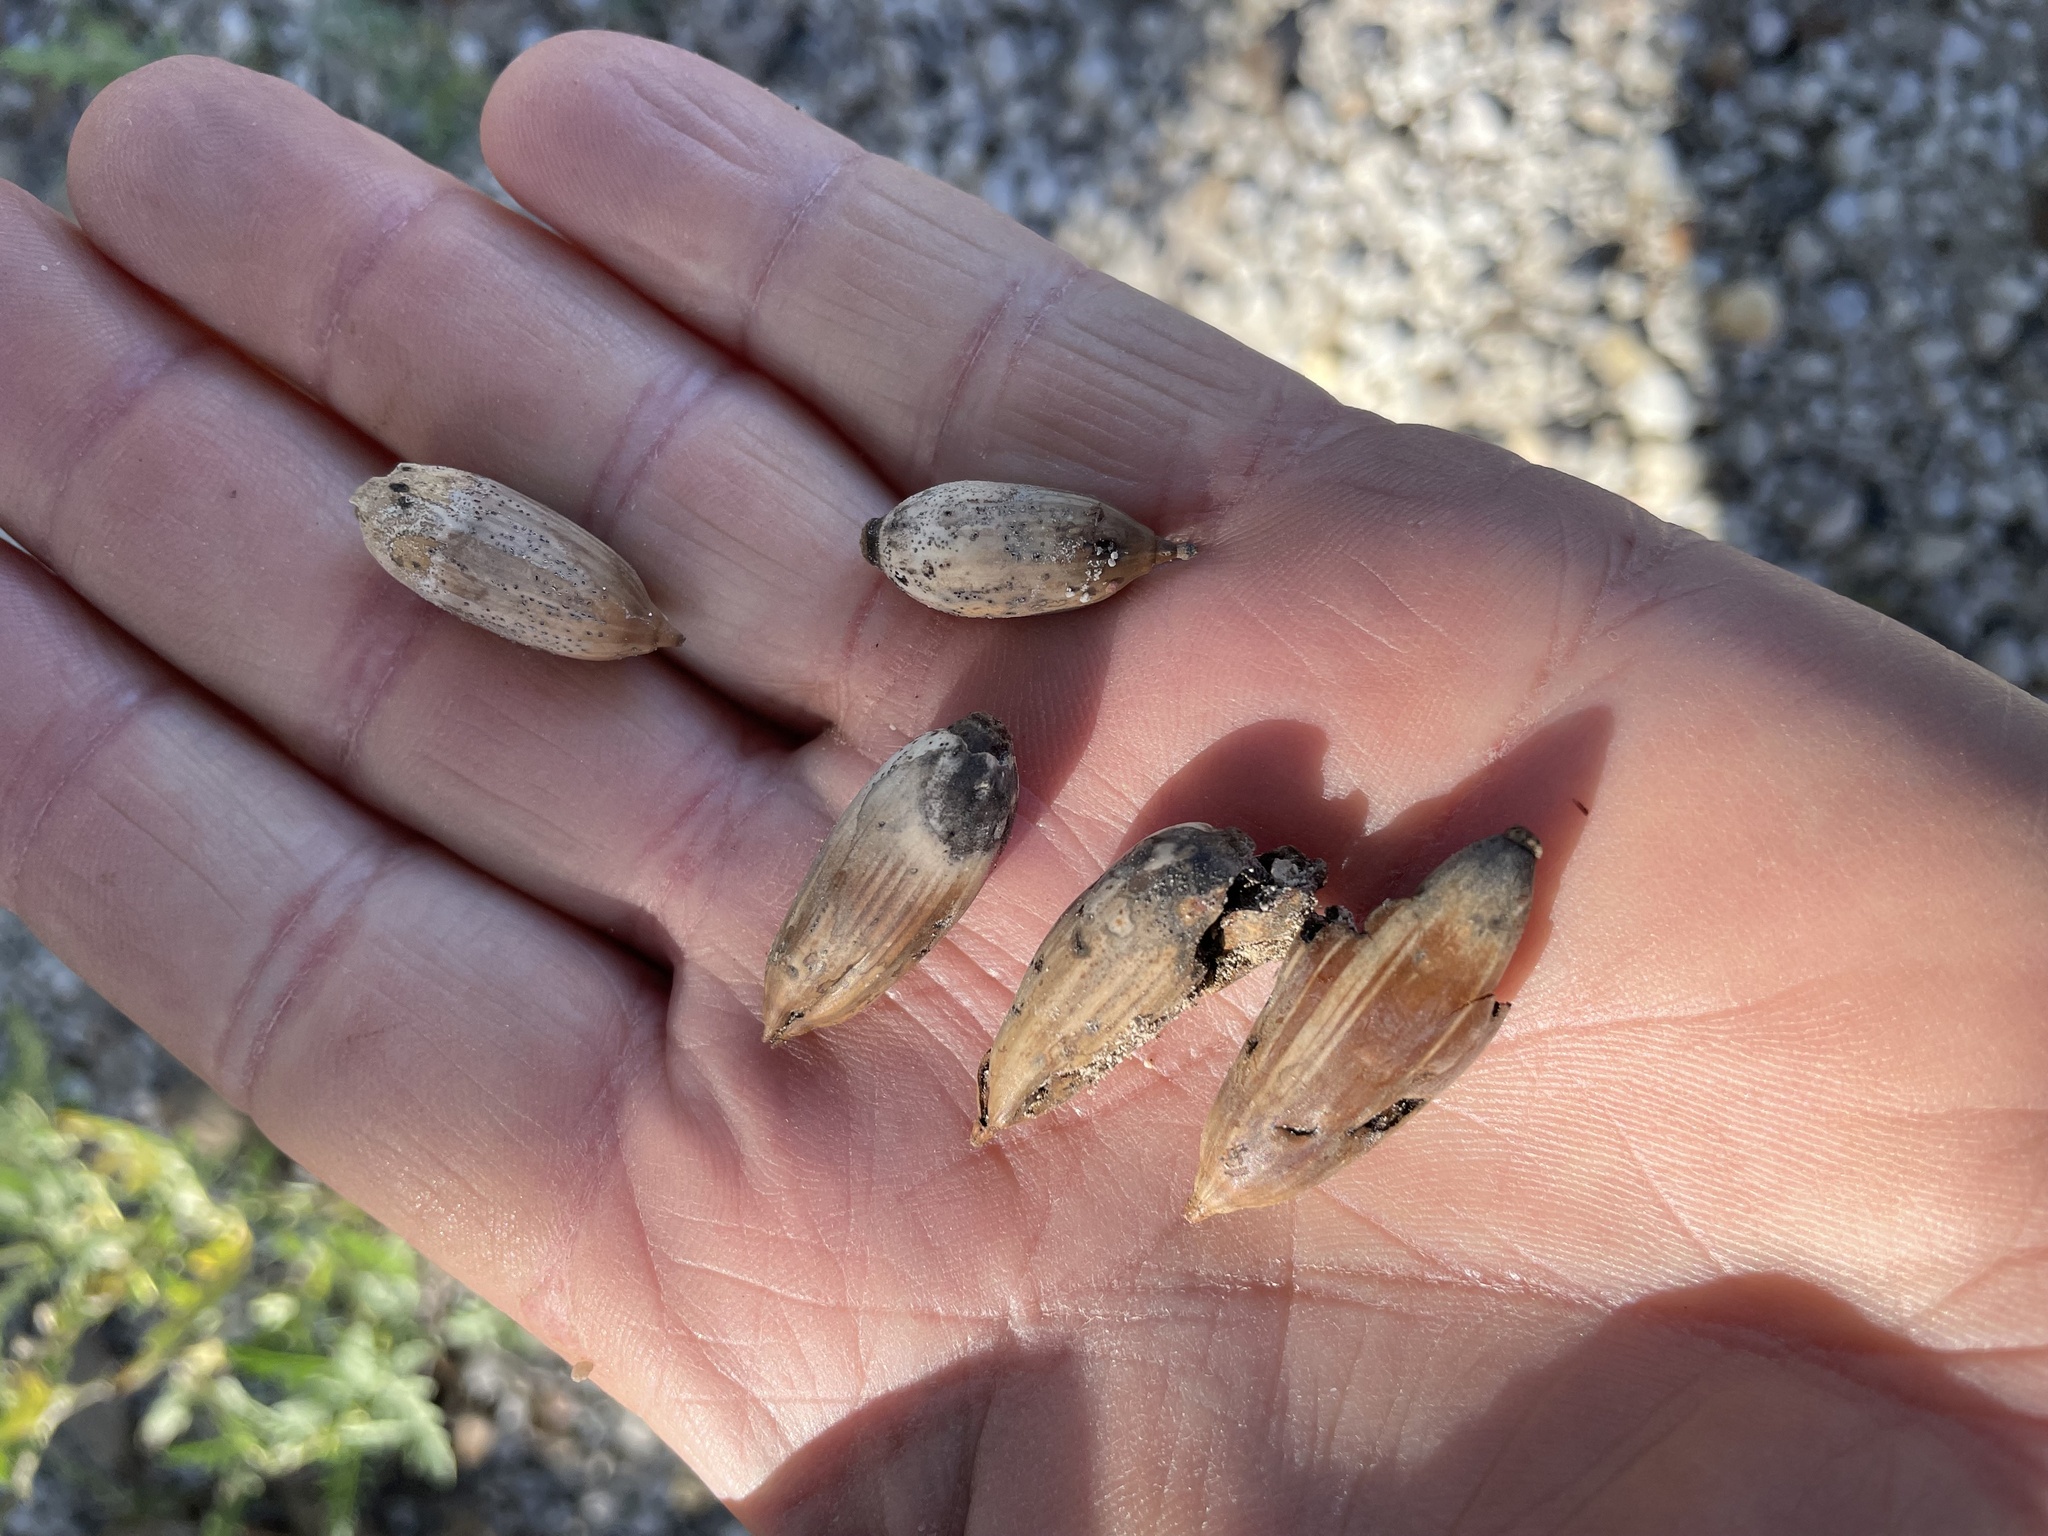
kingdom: Plantae
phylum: Tracheophyta
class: Magnoliopsida
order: Fagales
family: Fagaceae
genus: Quercus
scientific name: Quercus fusiformis
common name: Texas live oak
